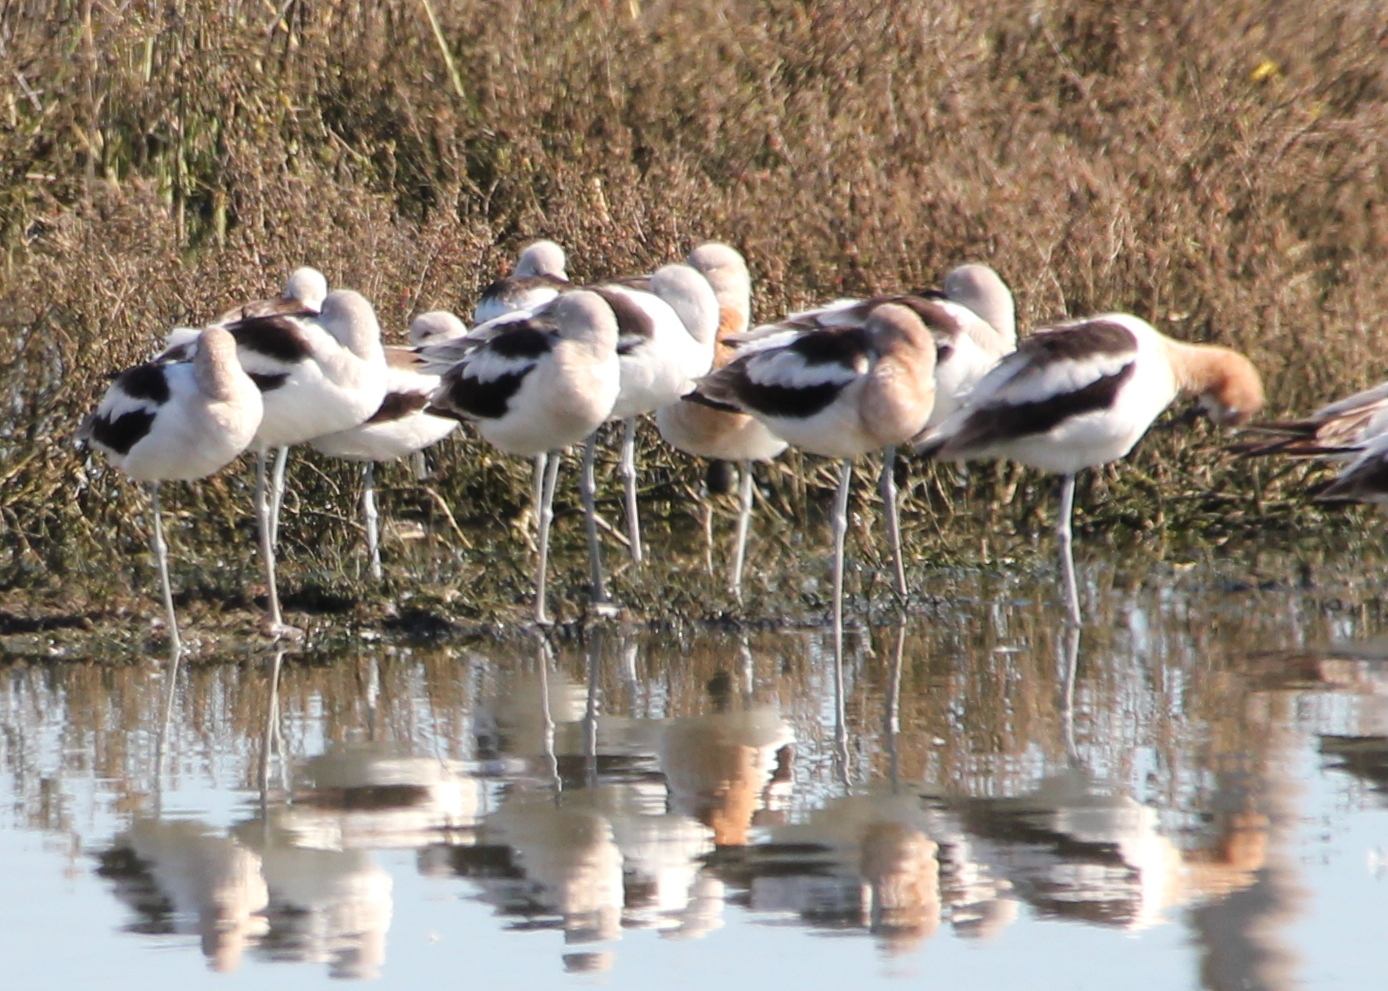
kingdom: Animalia
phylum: Chordata
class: Aves
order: Charadriiformes
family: Recurvirostridae
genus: Recurvirostra
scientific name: Recurvirostra americana
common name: American avocet
